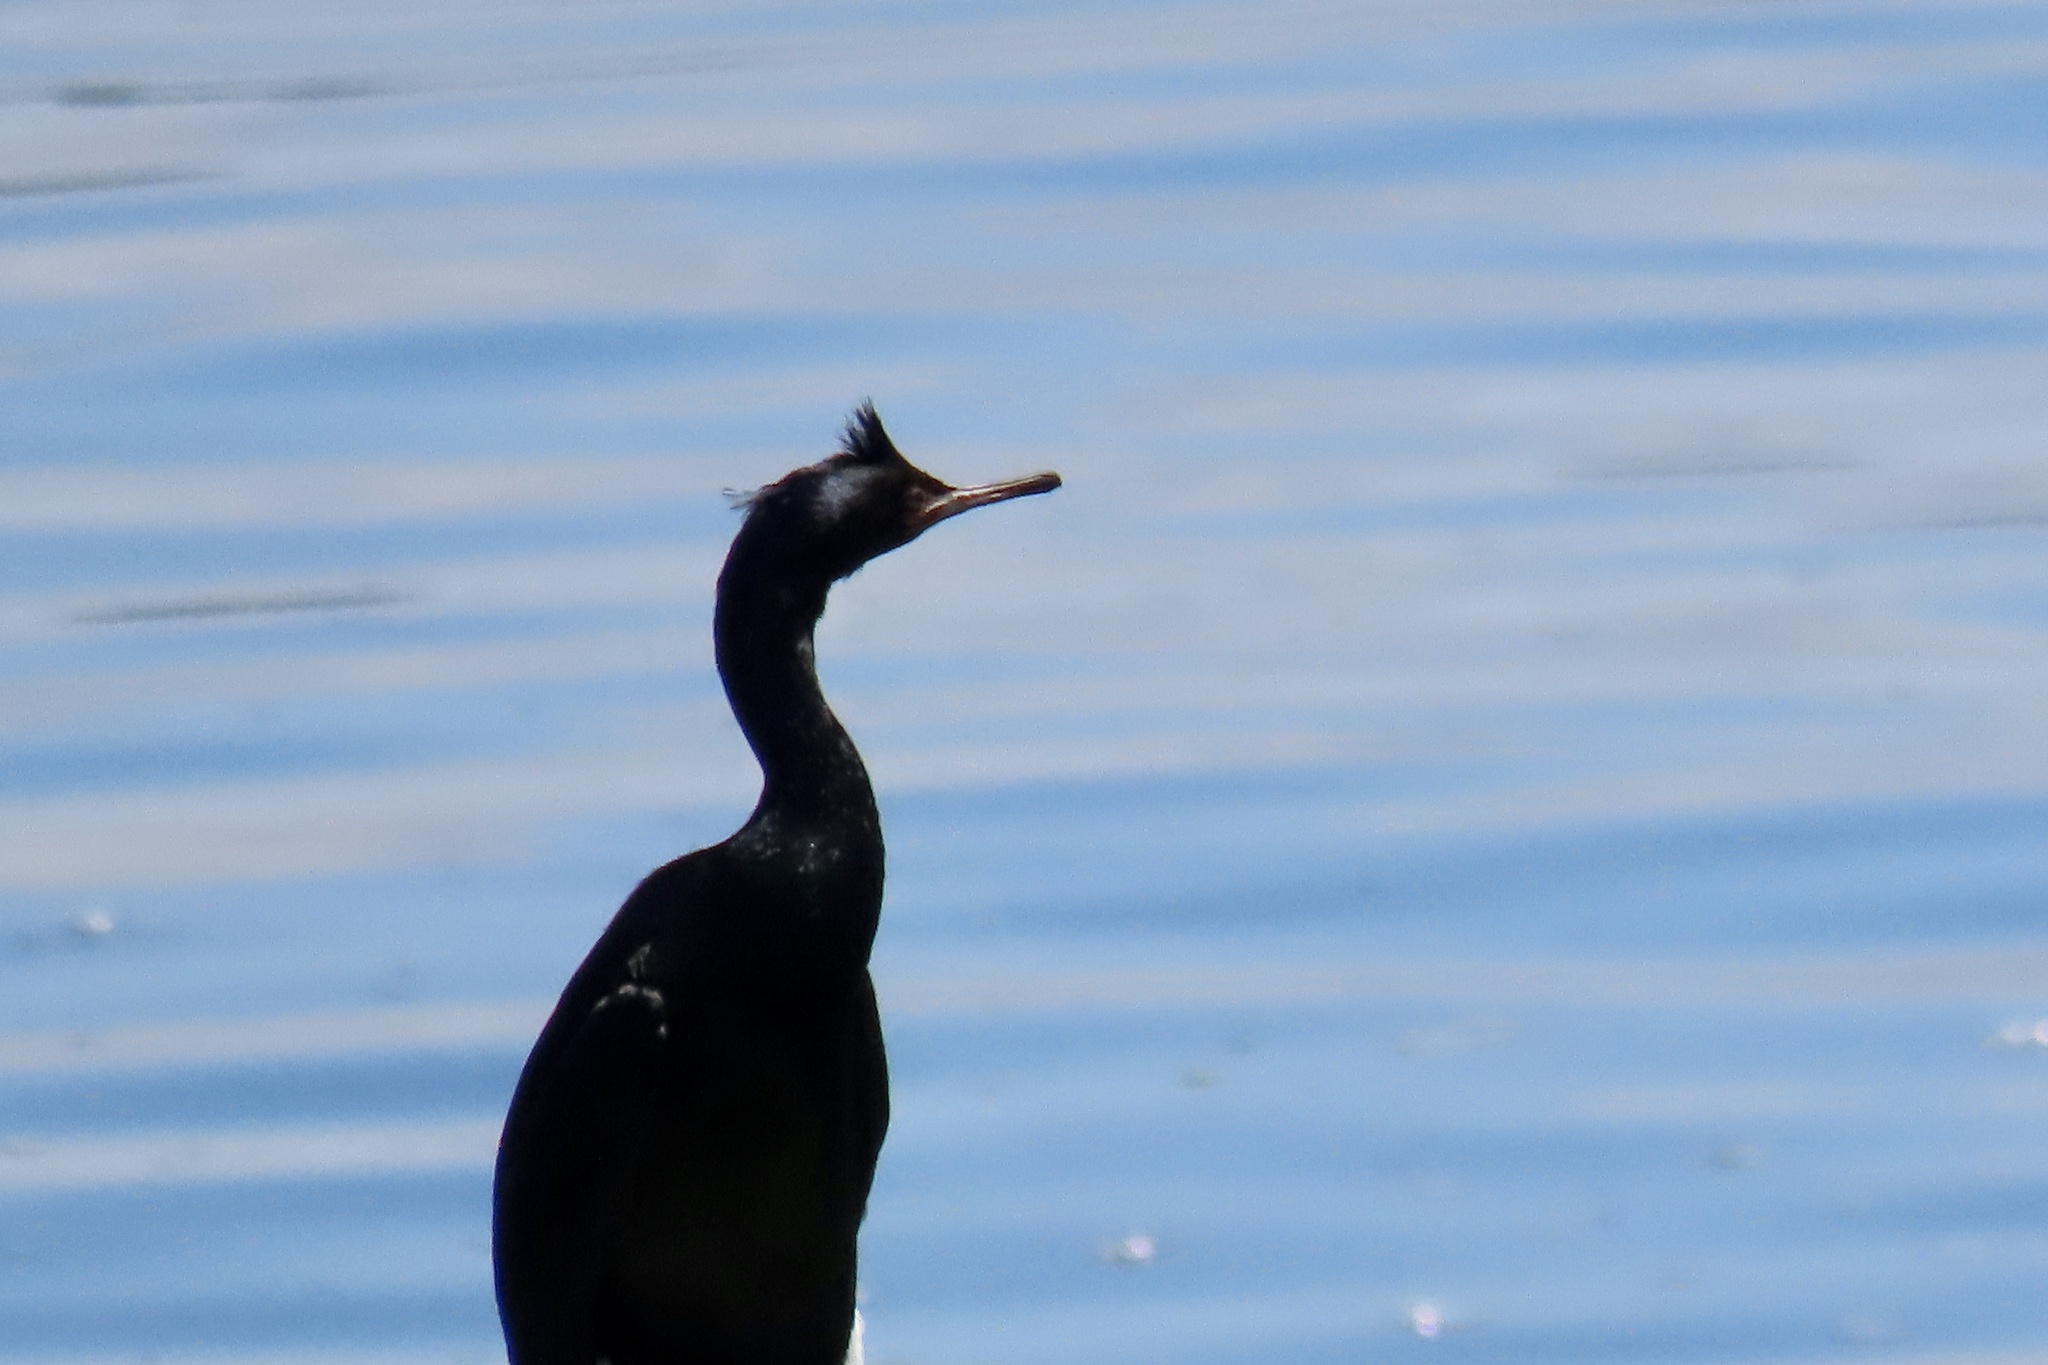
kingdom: Animalia
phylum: Chordata
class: Aves
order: Suliformes
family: Phalacrocoracidae
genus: Phalacrocorax
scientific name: Phalacrocorax pelagicus
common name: Pelagic cormorant
